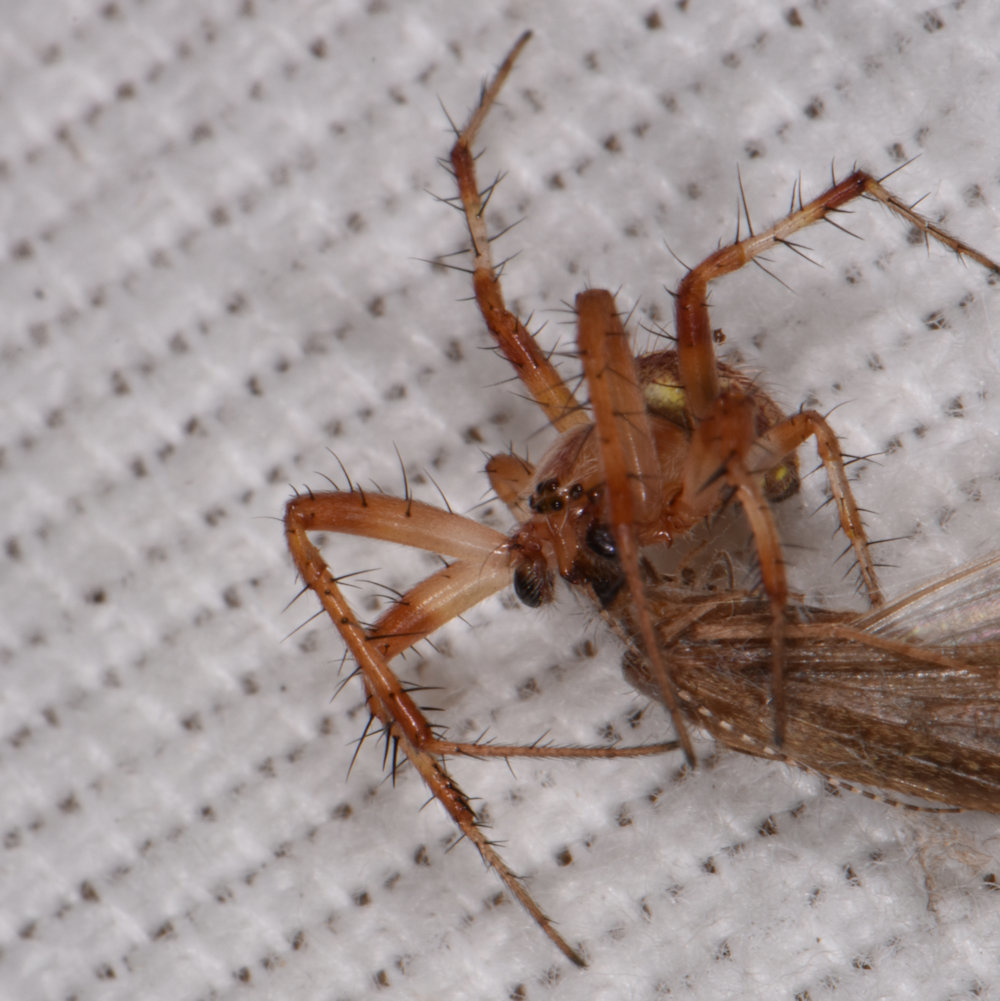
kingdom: Animalia
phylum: Arthropoda
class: Arachnida
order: Araneae
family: Araneidae
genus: Neoscona
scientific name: Neoscona arabesca
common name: Orb weavers
